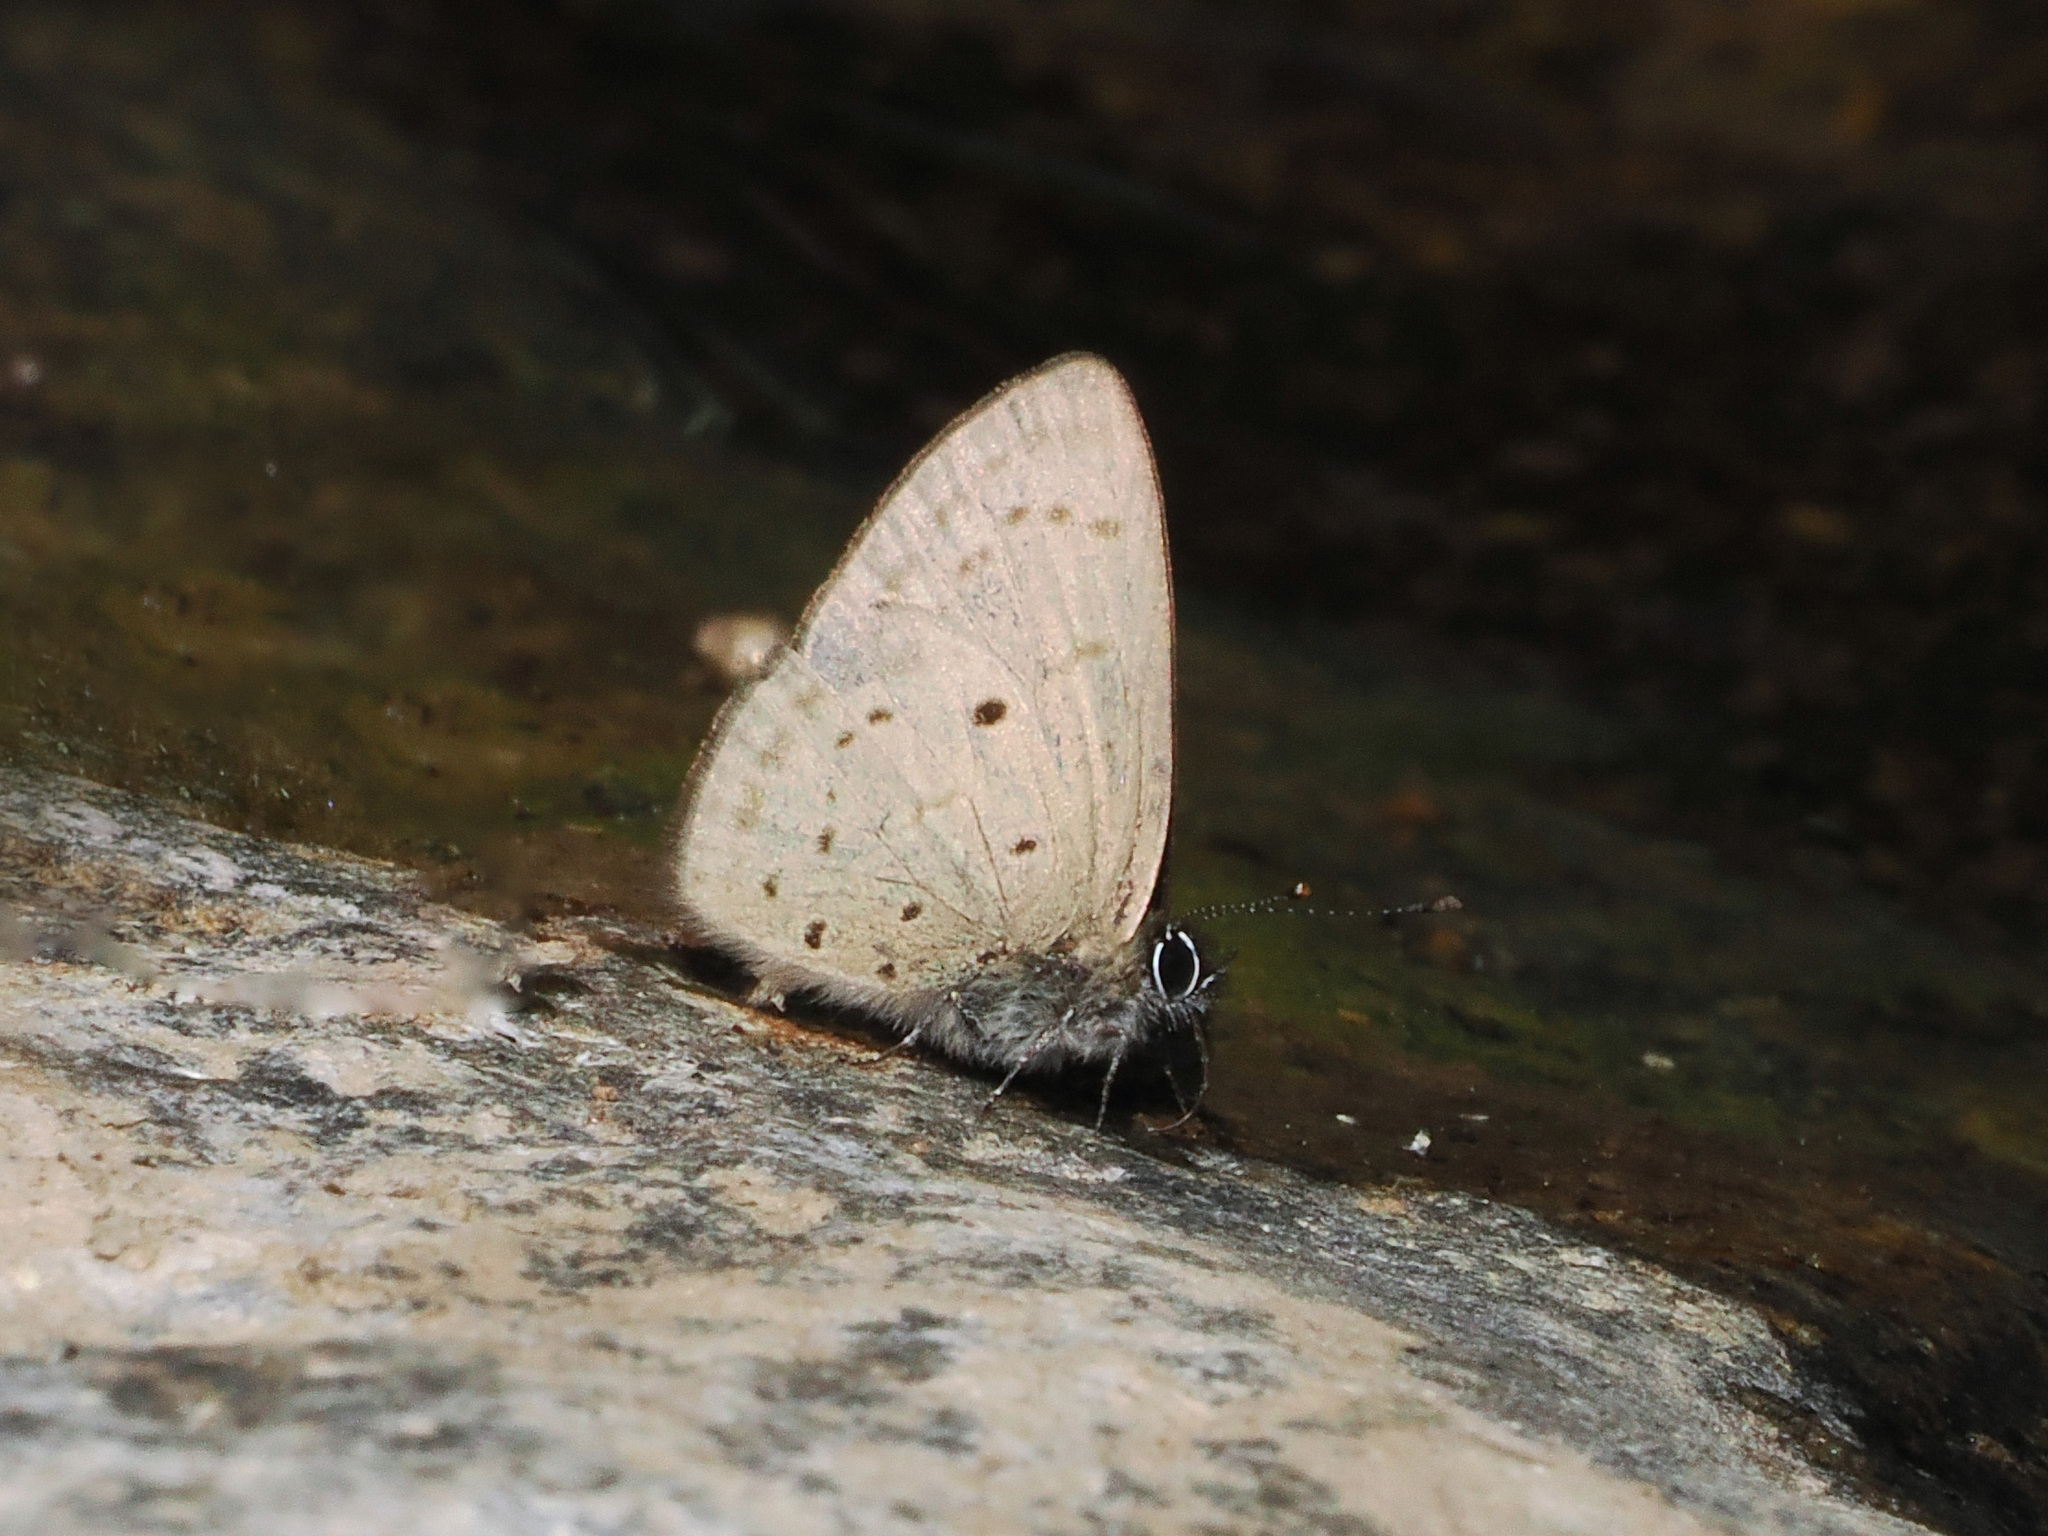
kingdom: Animalia
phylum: Arthropoda
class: Insecta
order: Lepidoptera
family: Lycaenidae
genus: Una
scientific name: Una usta
